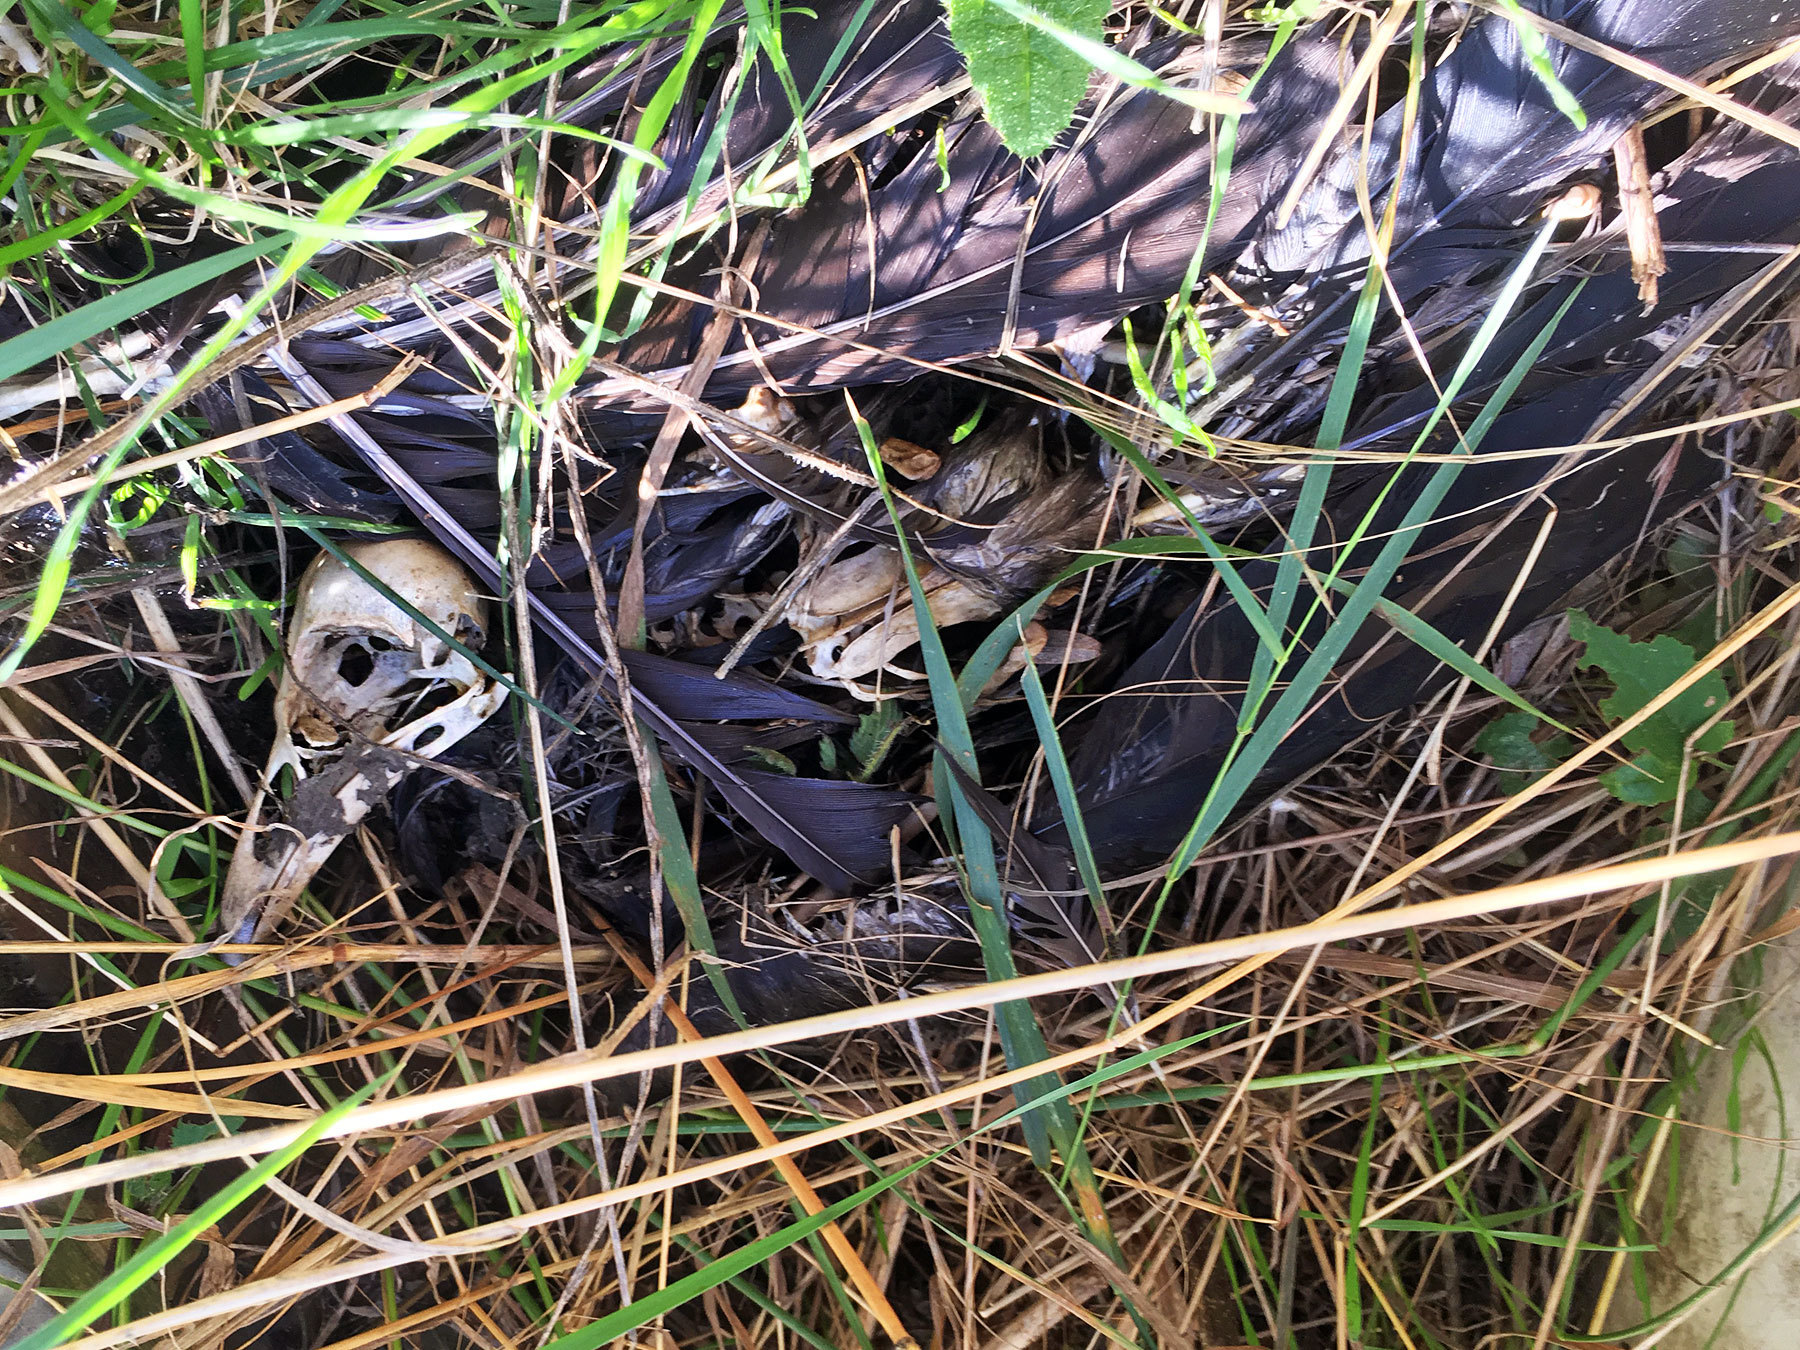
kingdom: Animalia
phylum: Chordata
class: Aves
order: Passeriformes
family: Corvidae
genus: Corvus
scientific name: Corvus corone
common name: Carrion crow
